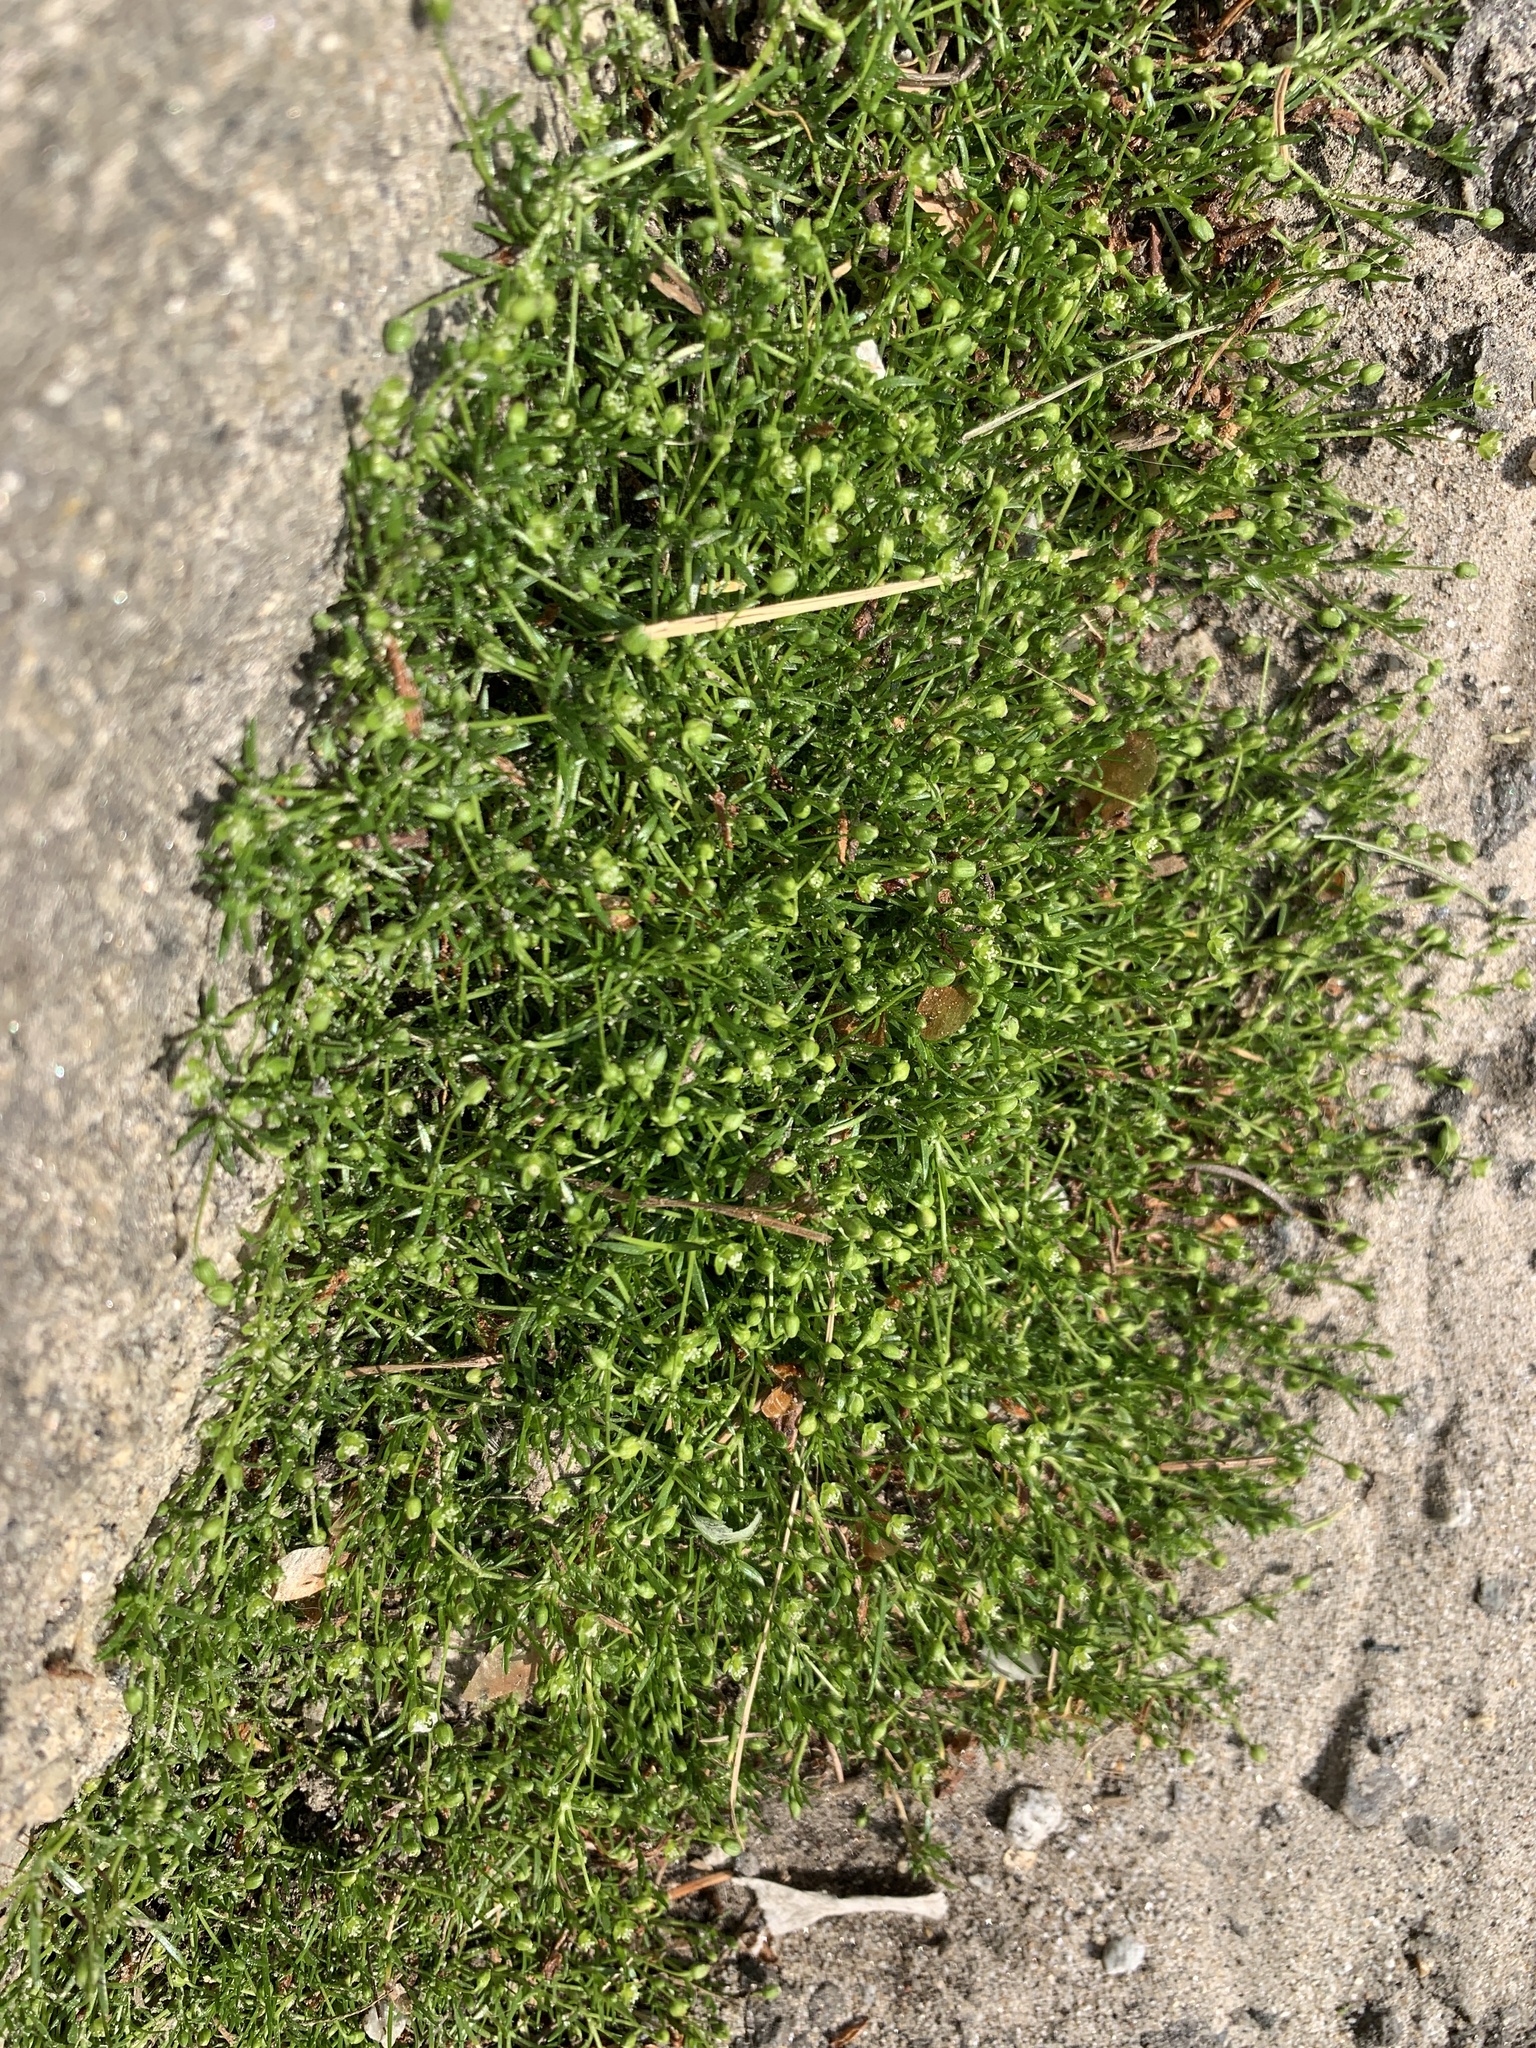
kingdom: Plantae
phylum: Tracheophyta
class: Magnoliopsida
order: Caryophyllales
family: Caryophyllaceae
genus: Sagina
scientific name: Sagina procumbens
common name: Procumbent pearlwort
